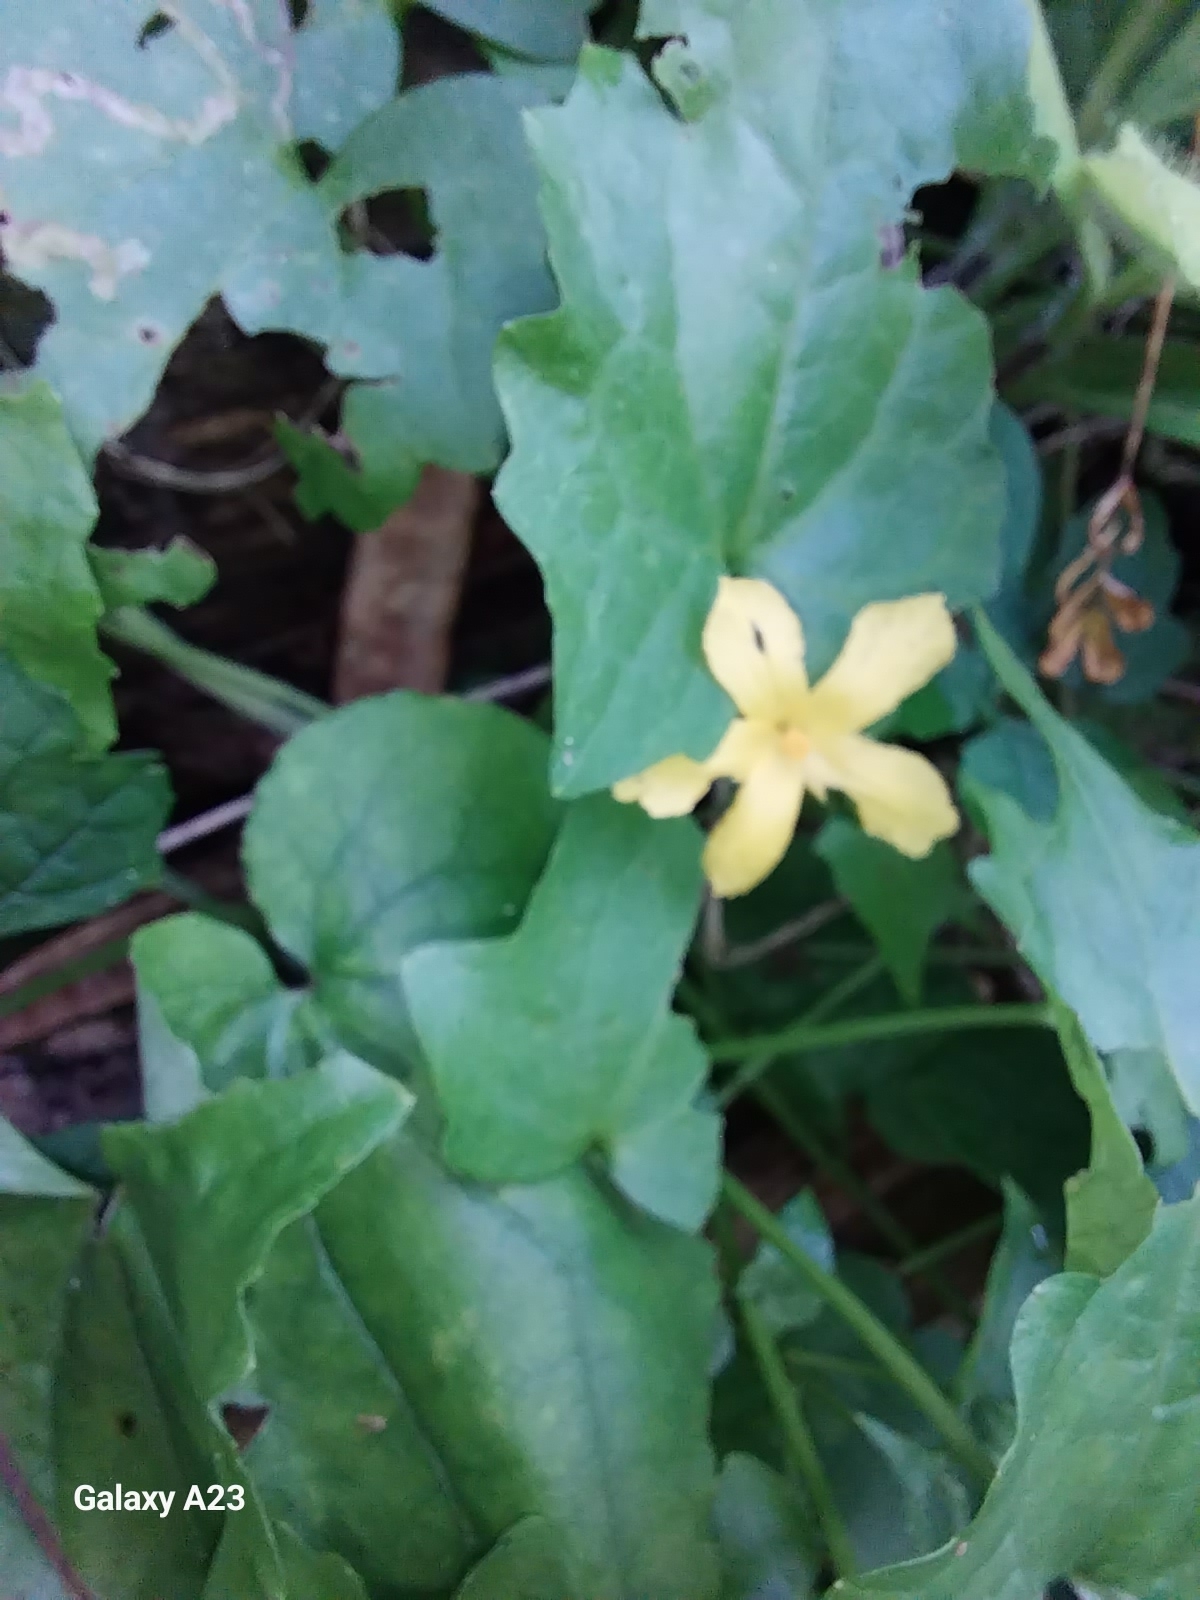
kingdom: Plantae
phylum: Tracheophyta
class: Magnoliopsida
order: Cucurbitales
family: Cucurbitaceae
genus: Momordica
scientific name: Momordica charantia
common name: Balsampear
